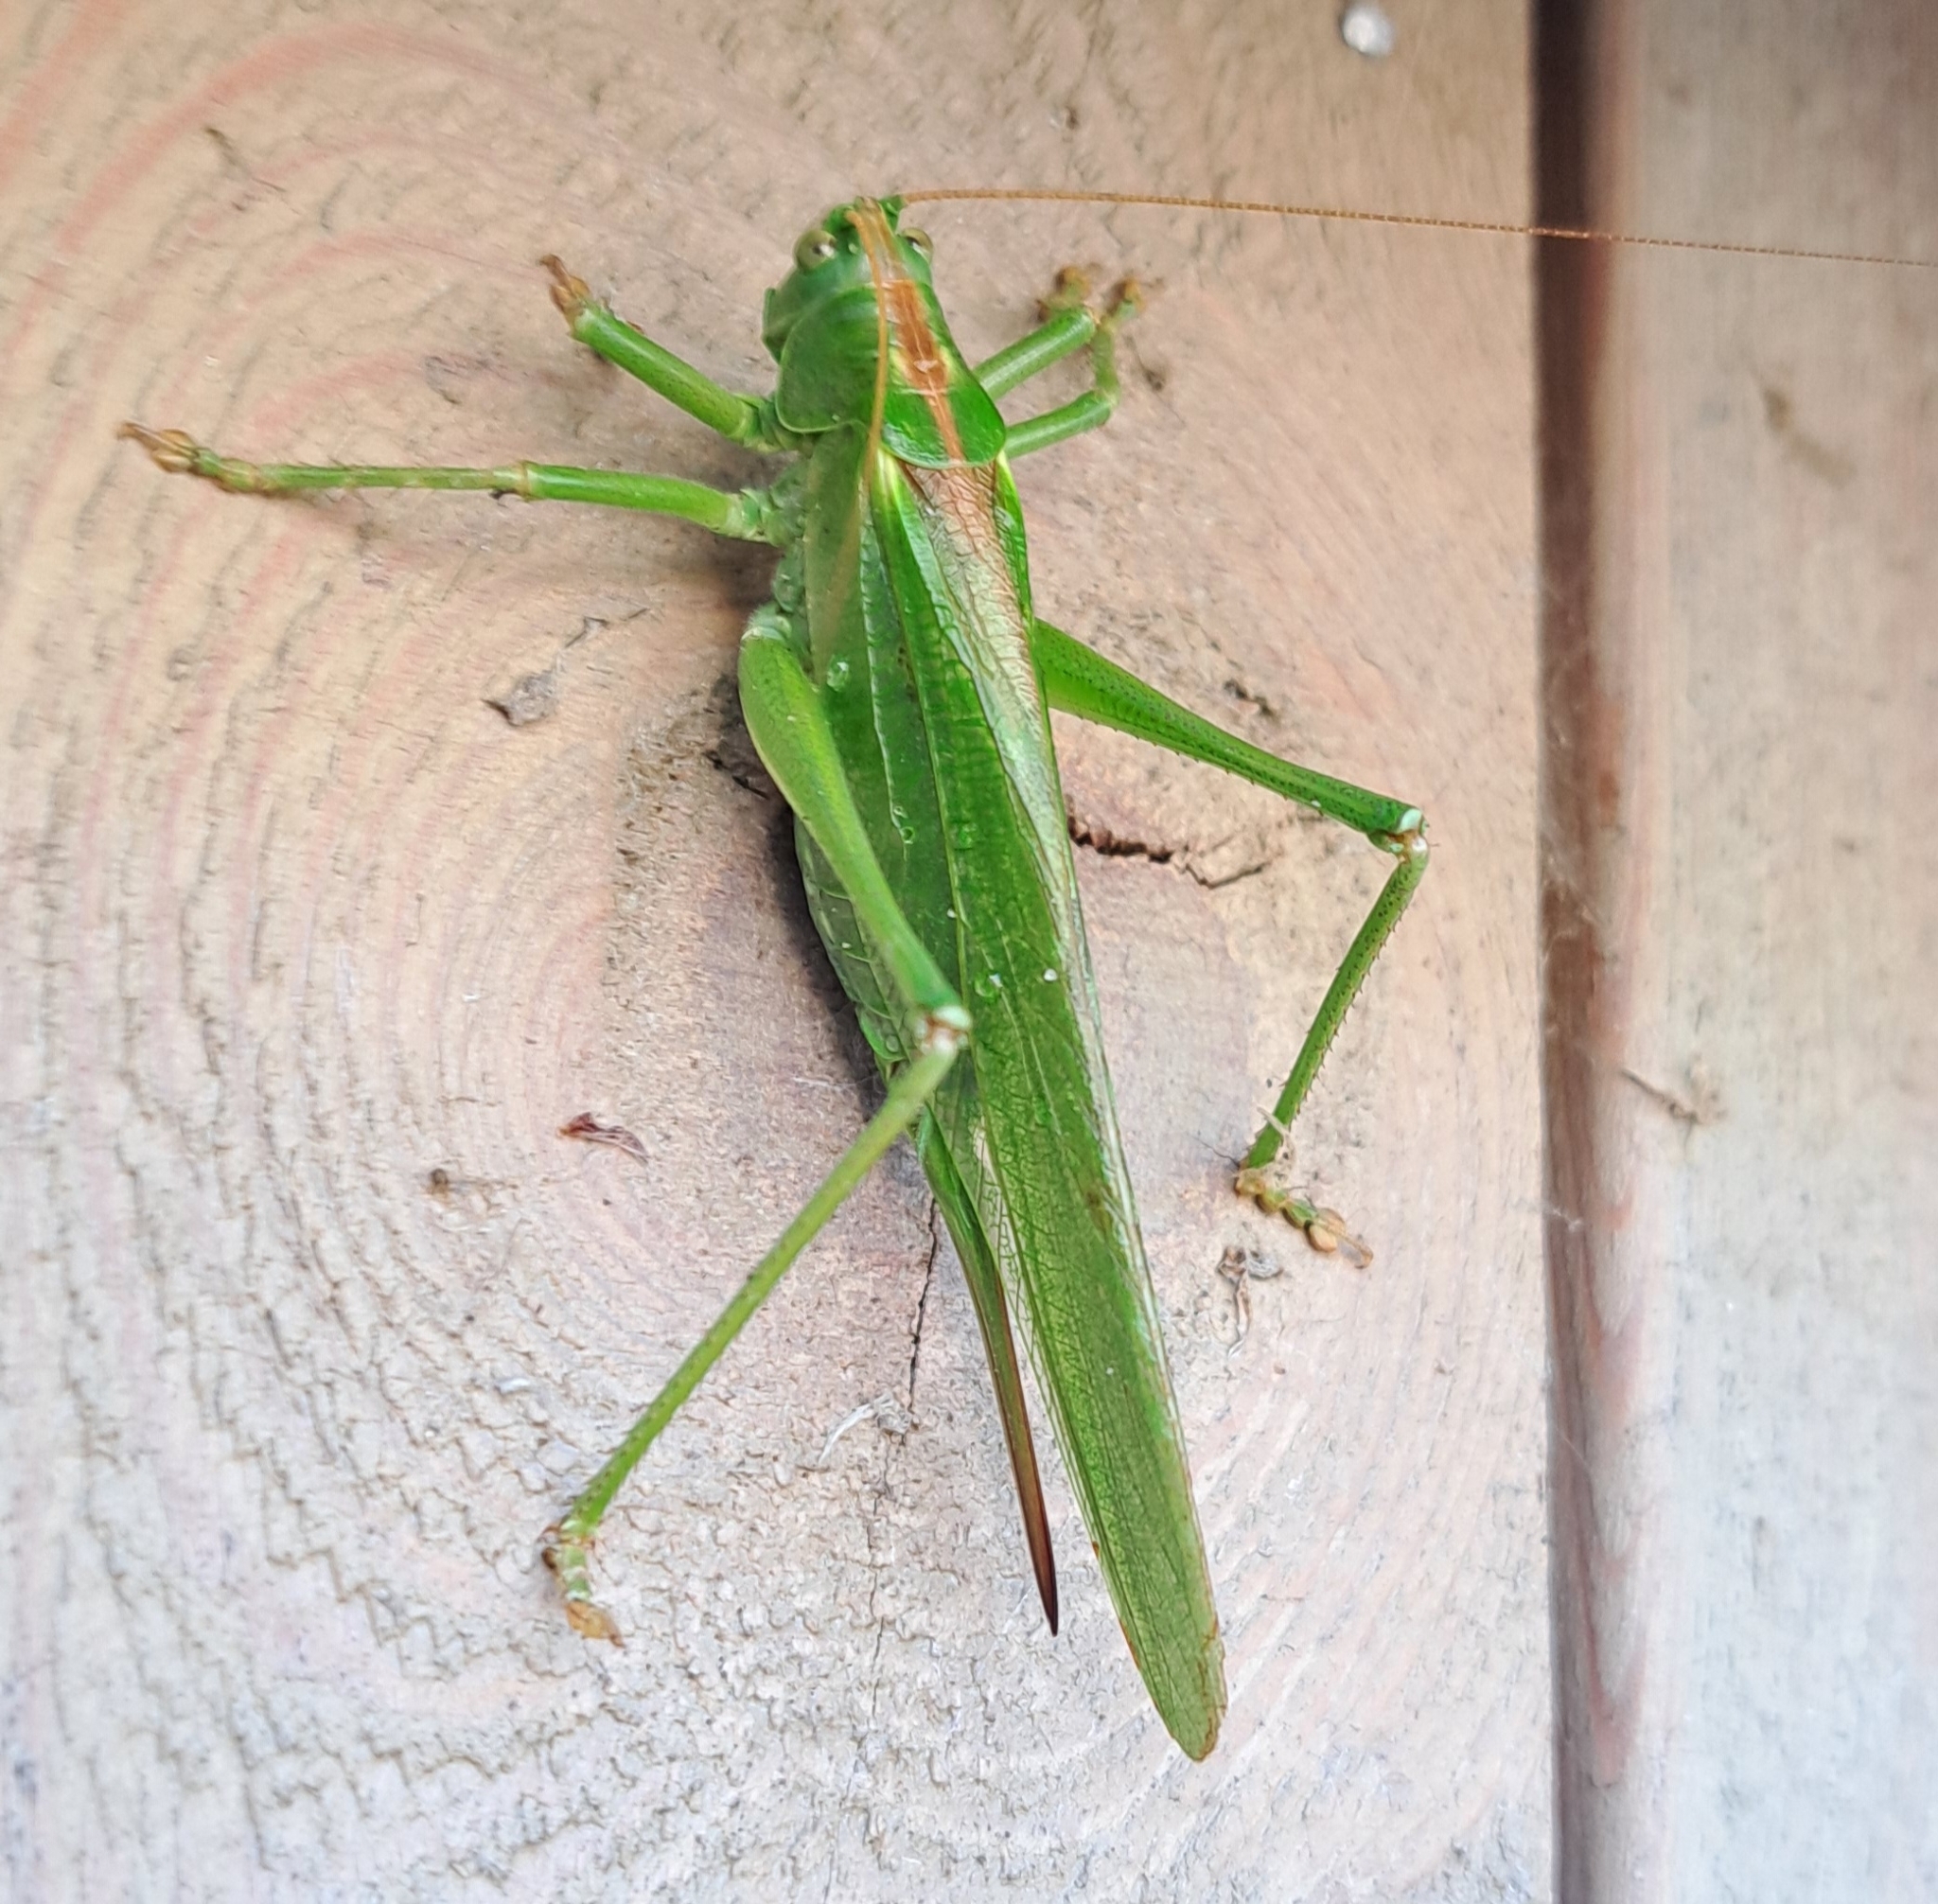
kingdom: Animalia
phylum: Arthropoda
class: Insecta
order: Orthoptera
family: Tettigoniidae
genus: Tettigonia
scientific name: Tettigonia viridissima
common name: Great green bush-cricket
